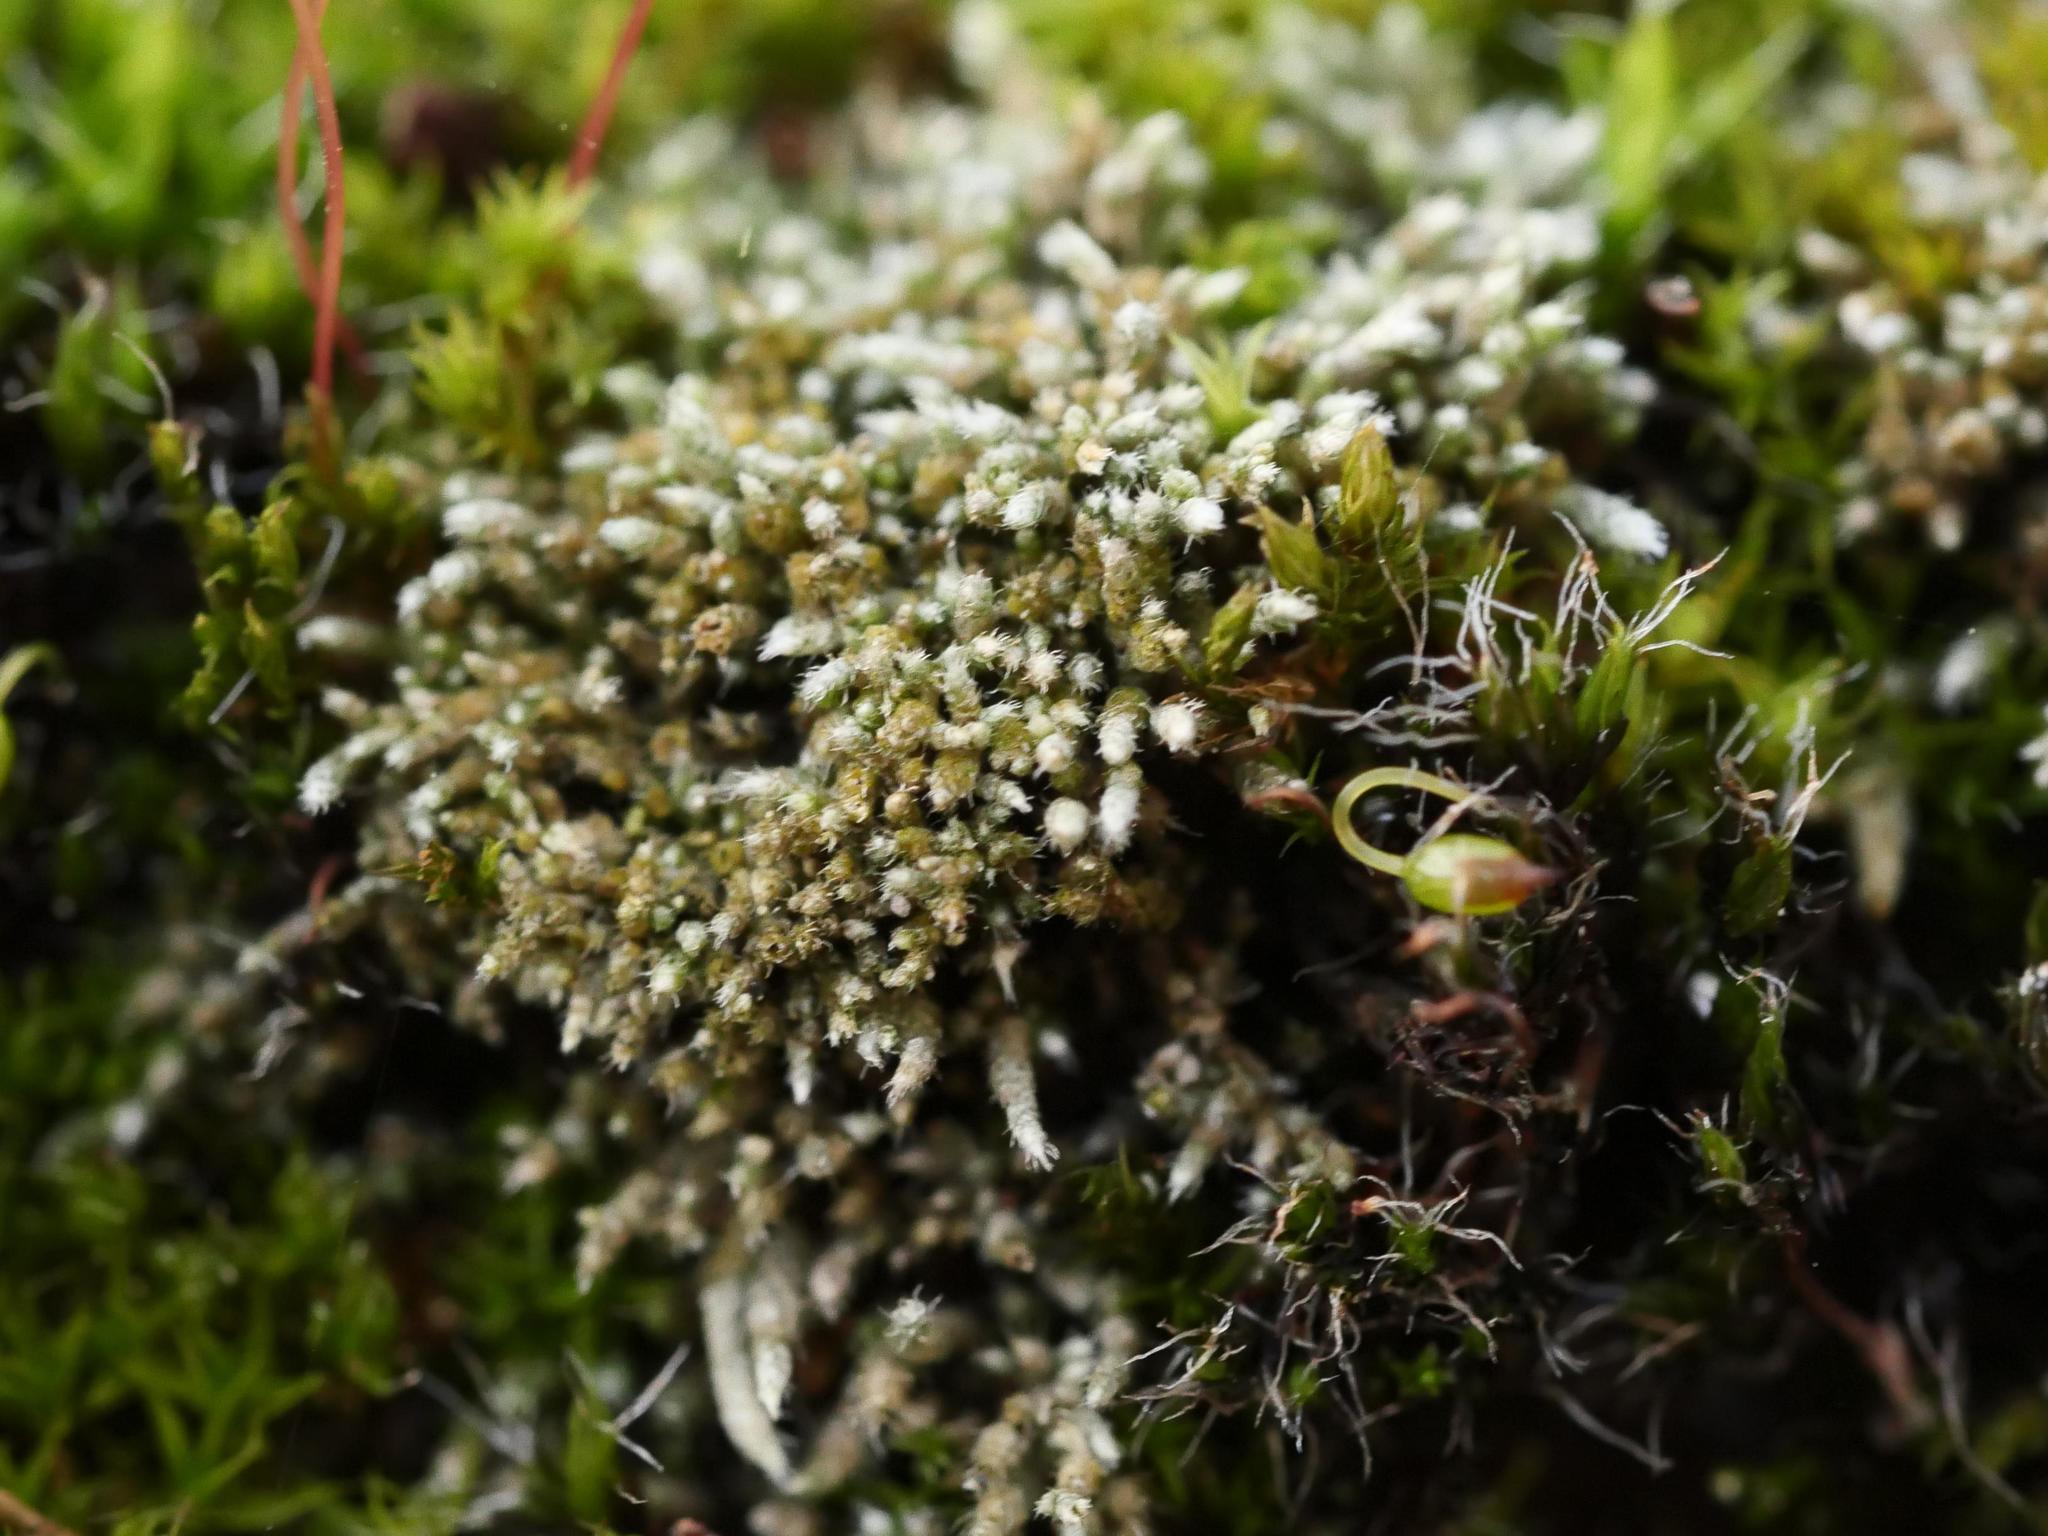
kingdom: Plantae
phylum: Bryophyta
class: Bryopsida
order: Bryales
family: Bryaceae
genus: Bryum
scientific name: Bryum argenteum
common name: Silver-moss
